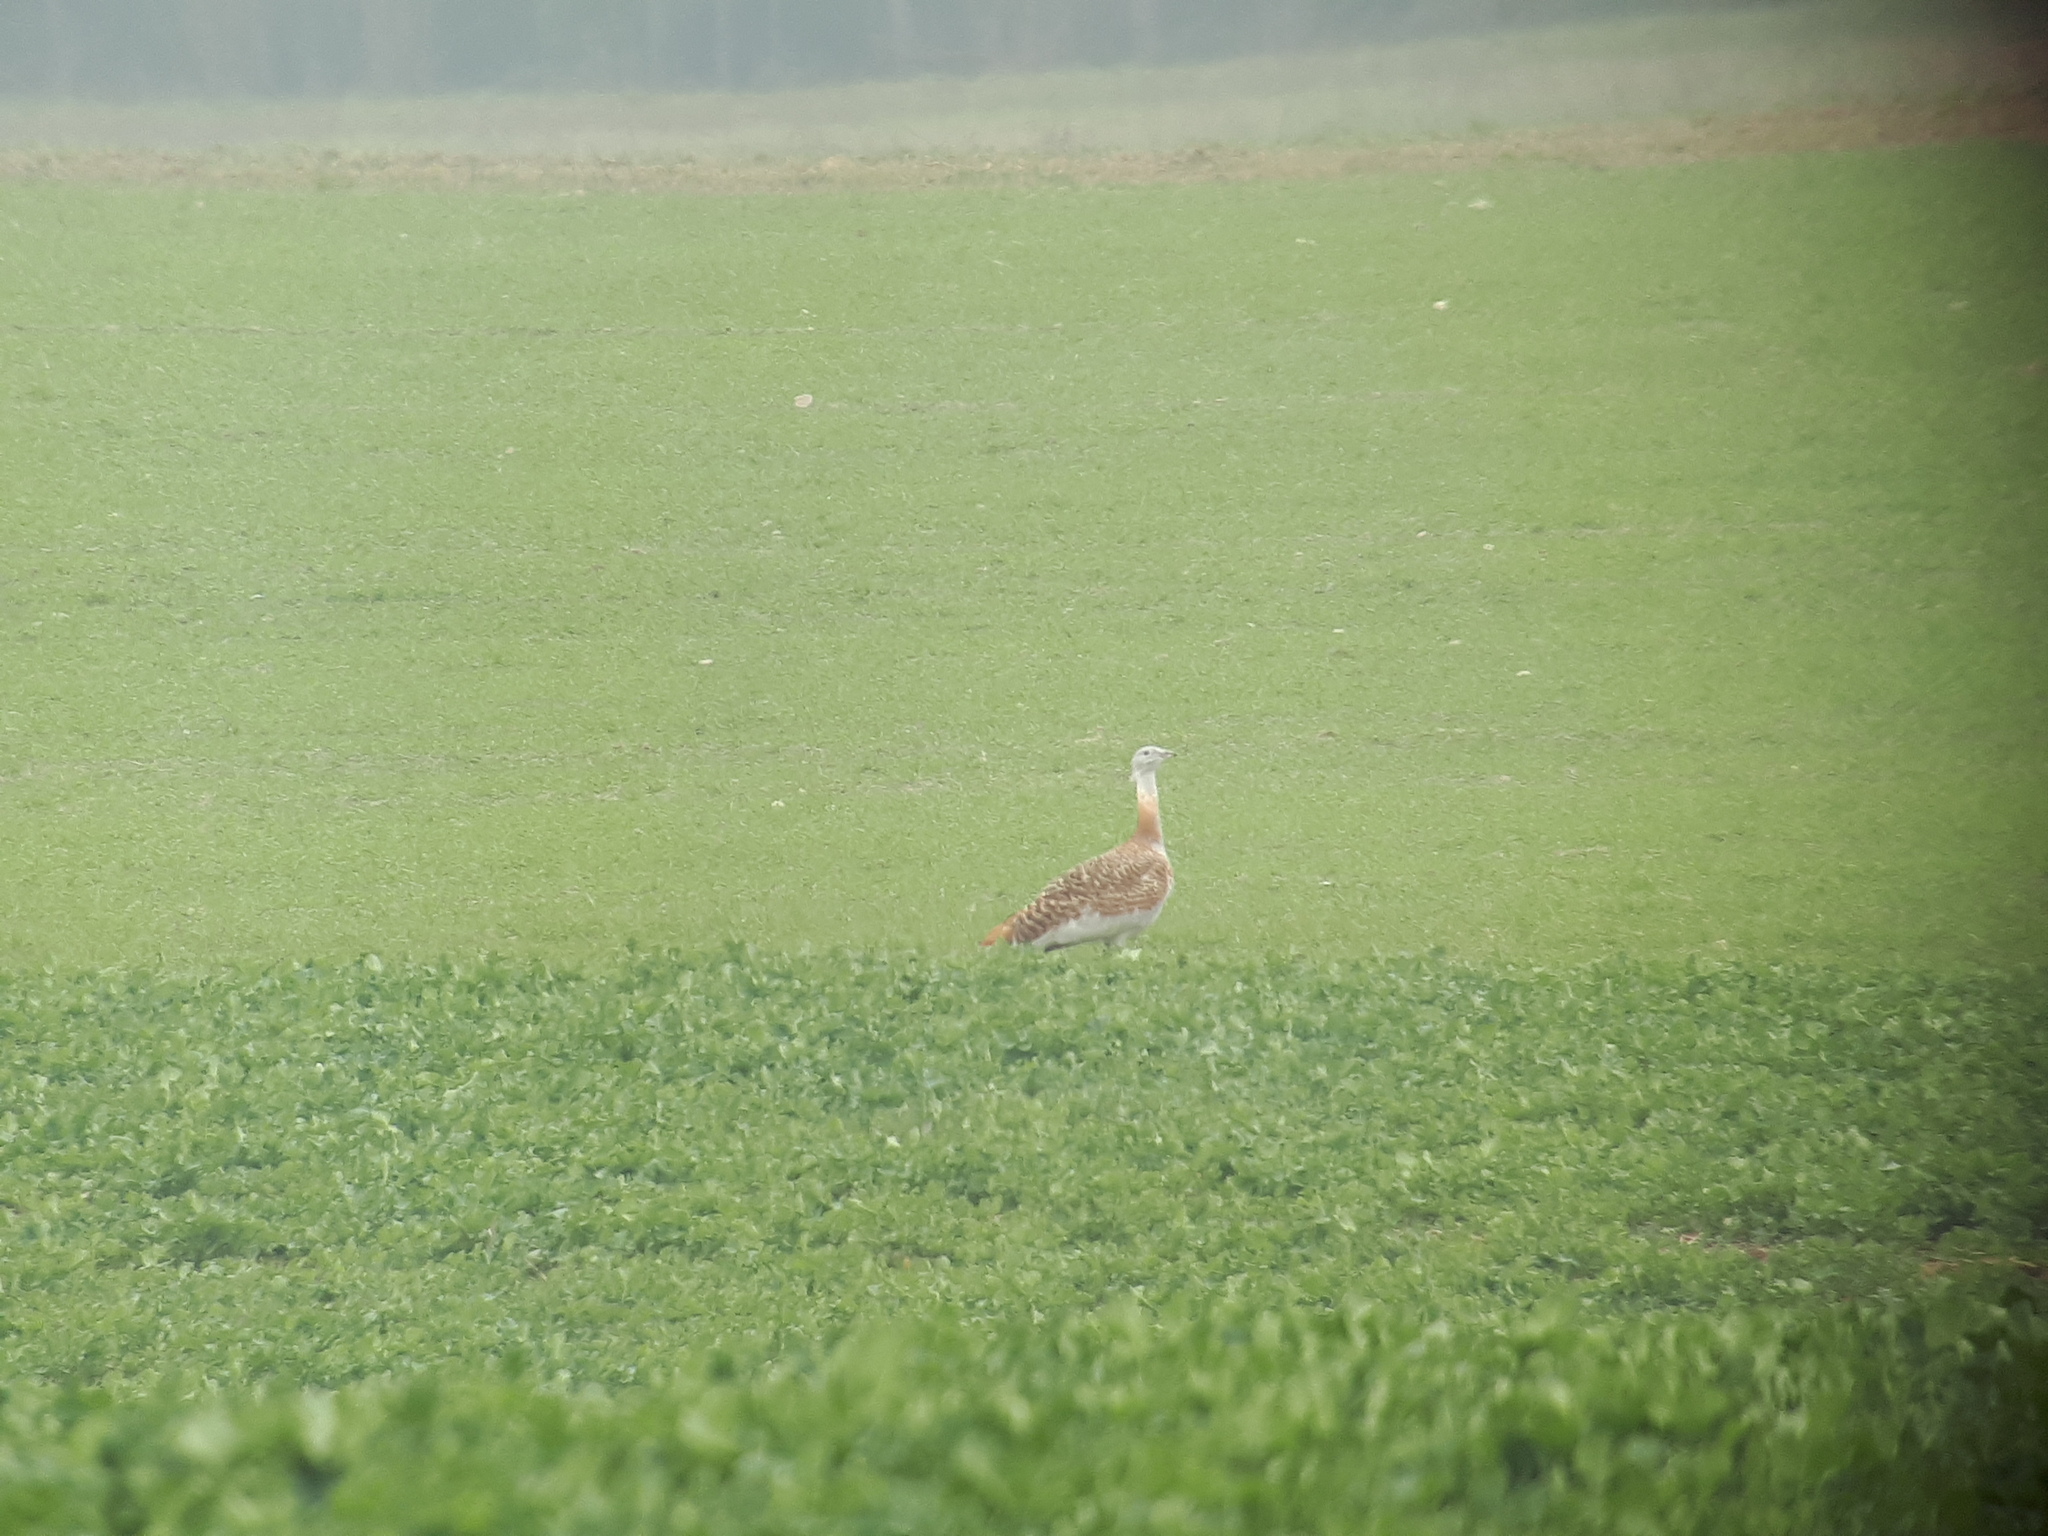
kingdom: Animalia
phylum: Chordata
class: Aves
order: Otidiformes
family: Otididae
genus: Otis
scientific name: Otis tarda
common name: Great bustard
